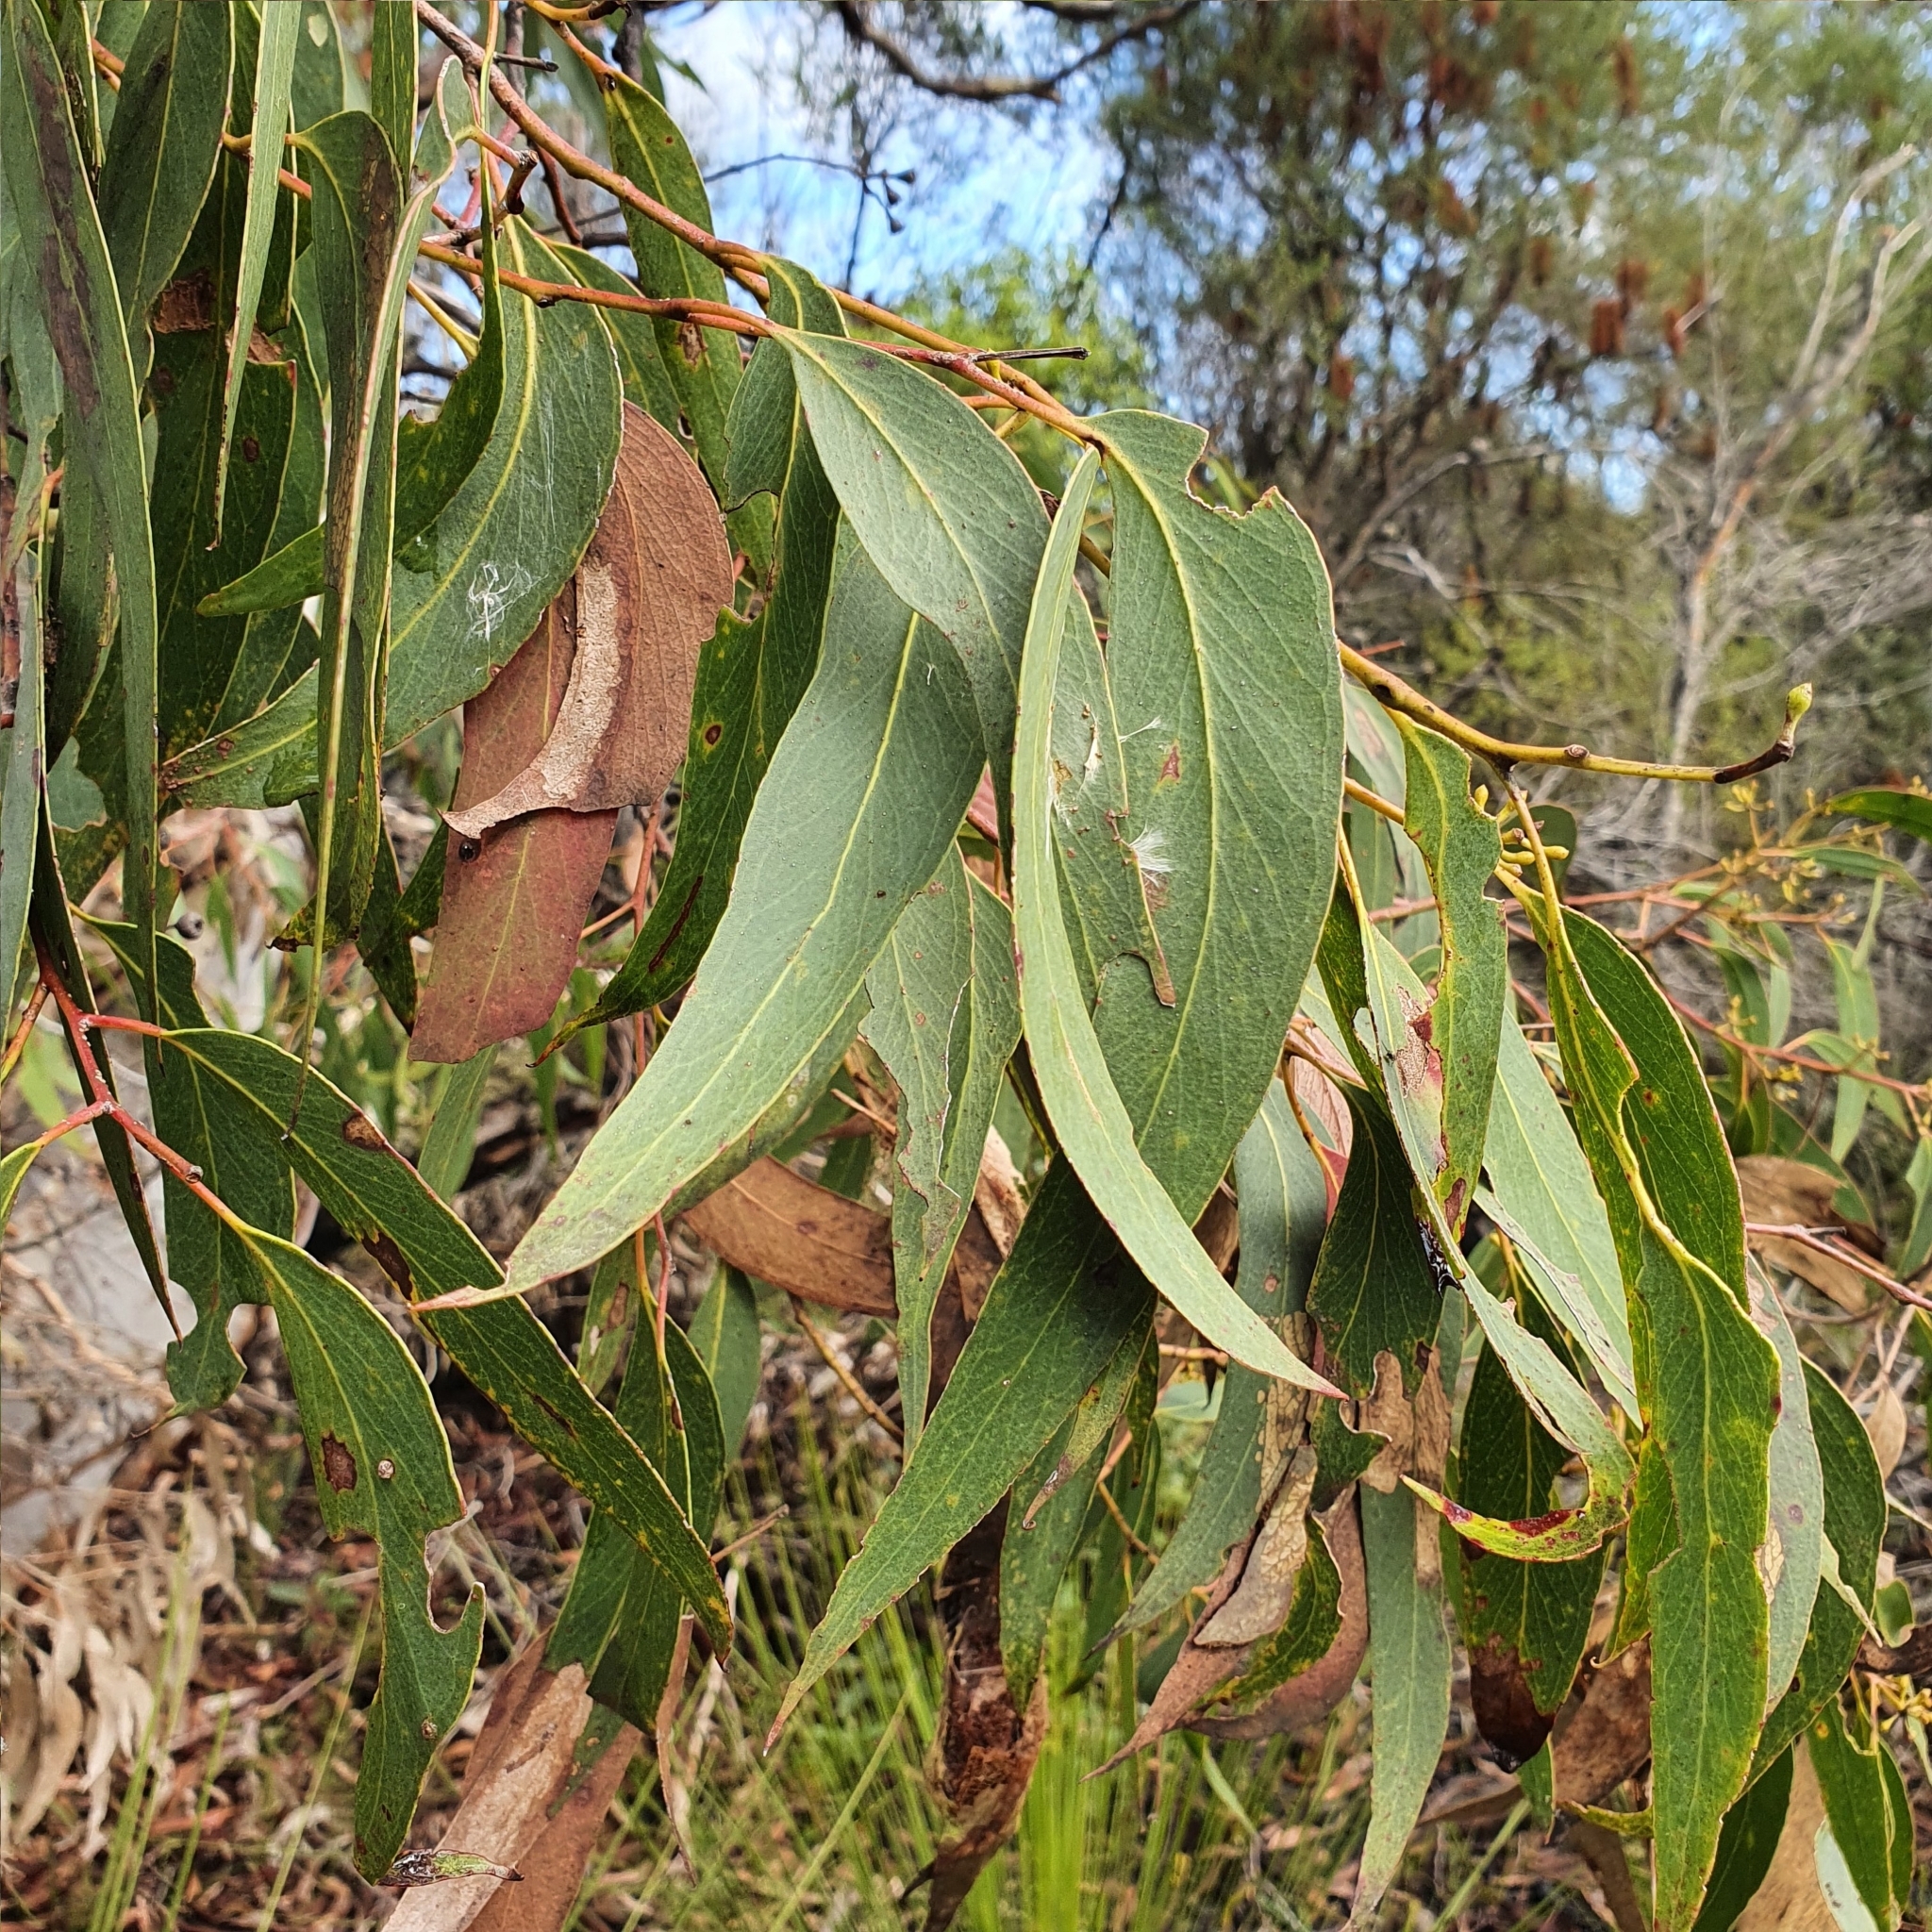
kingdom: Plantae
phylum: Tracheophyta
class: Magnoliopsida
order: Myrtales
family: Myrtaceae
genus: Eucalyptus
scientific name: Eucalyptus haemastoma
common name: Scribbly-gum
